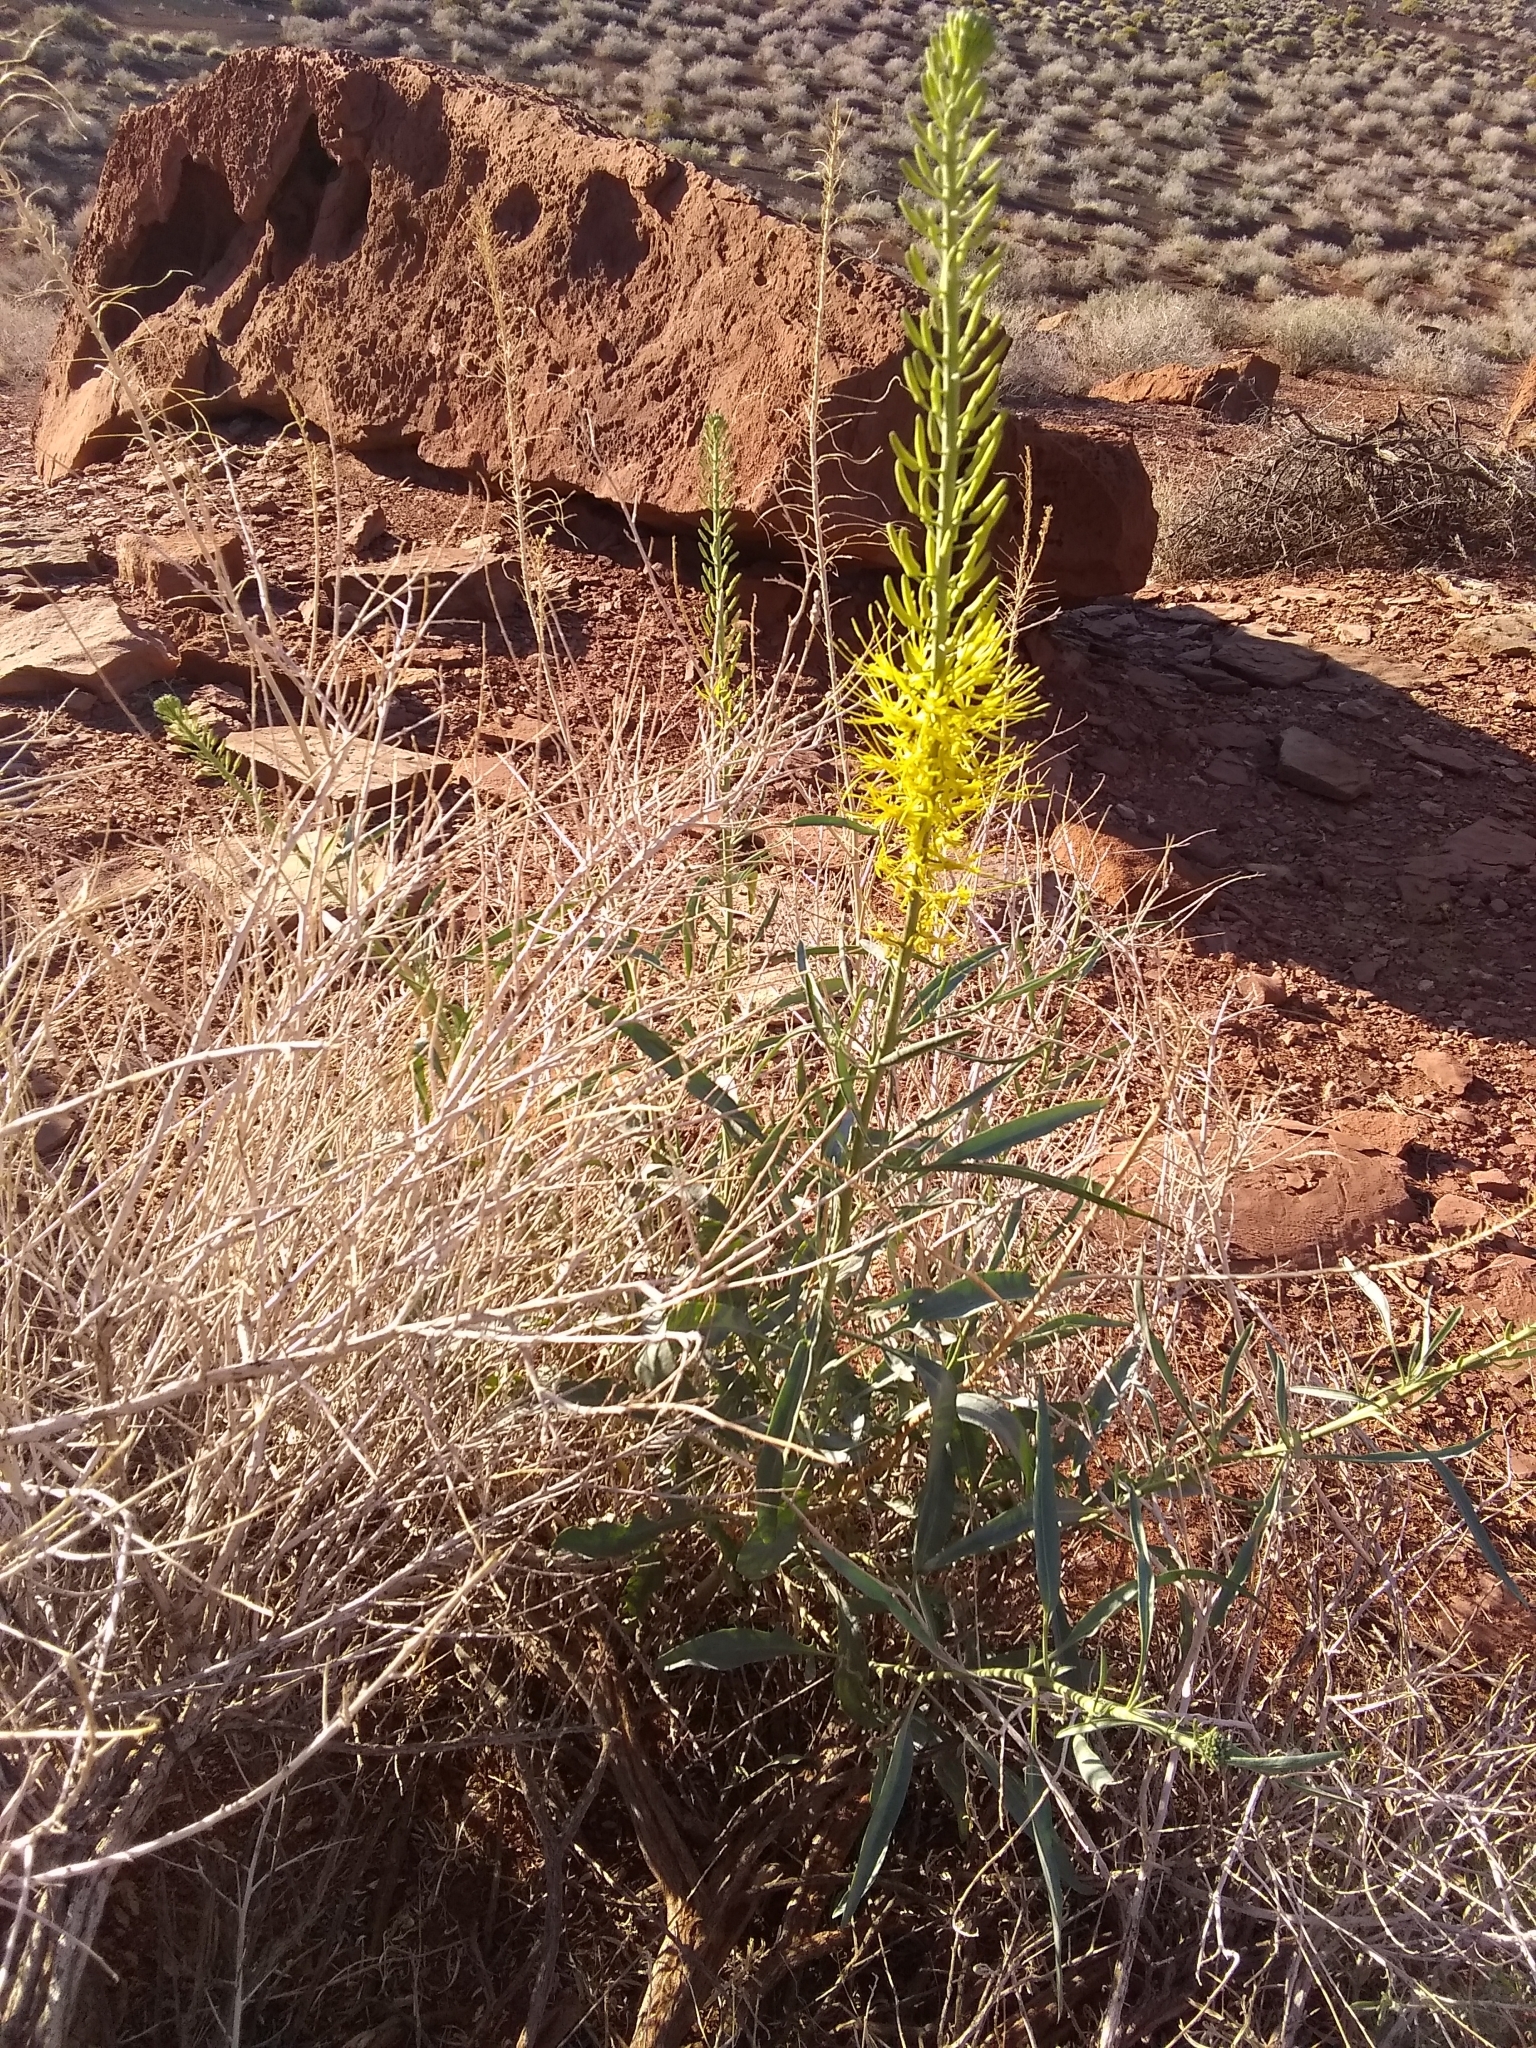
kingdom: Plantae
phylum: Tracheophyta
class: Magnoliopsida
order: Brassicales
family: Brassicaceae
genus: Stanleya
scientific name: Stanleya pinnata
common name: Prince's-plume
